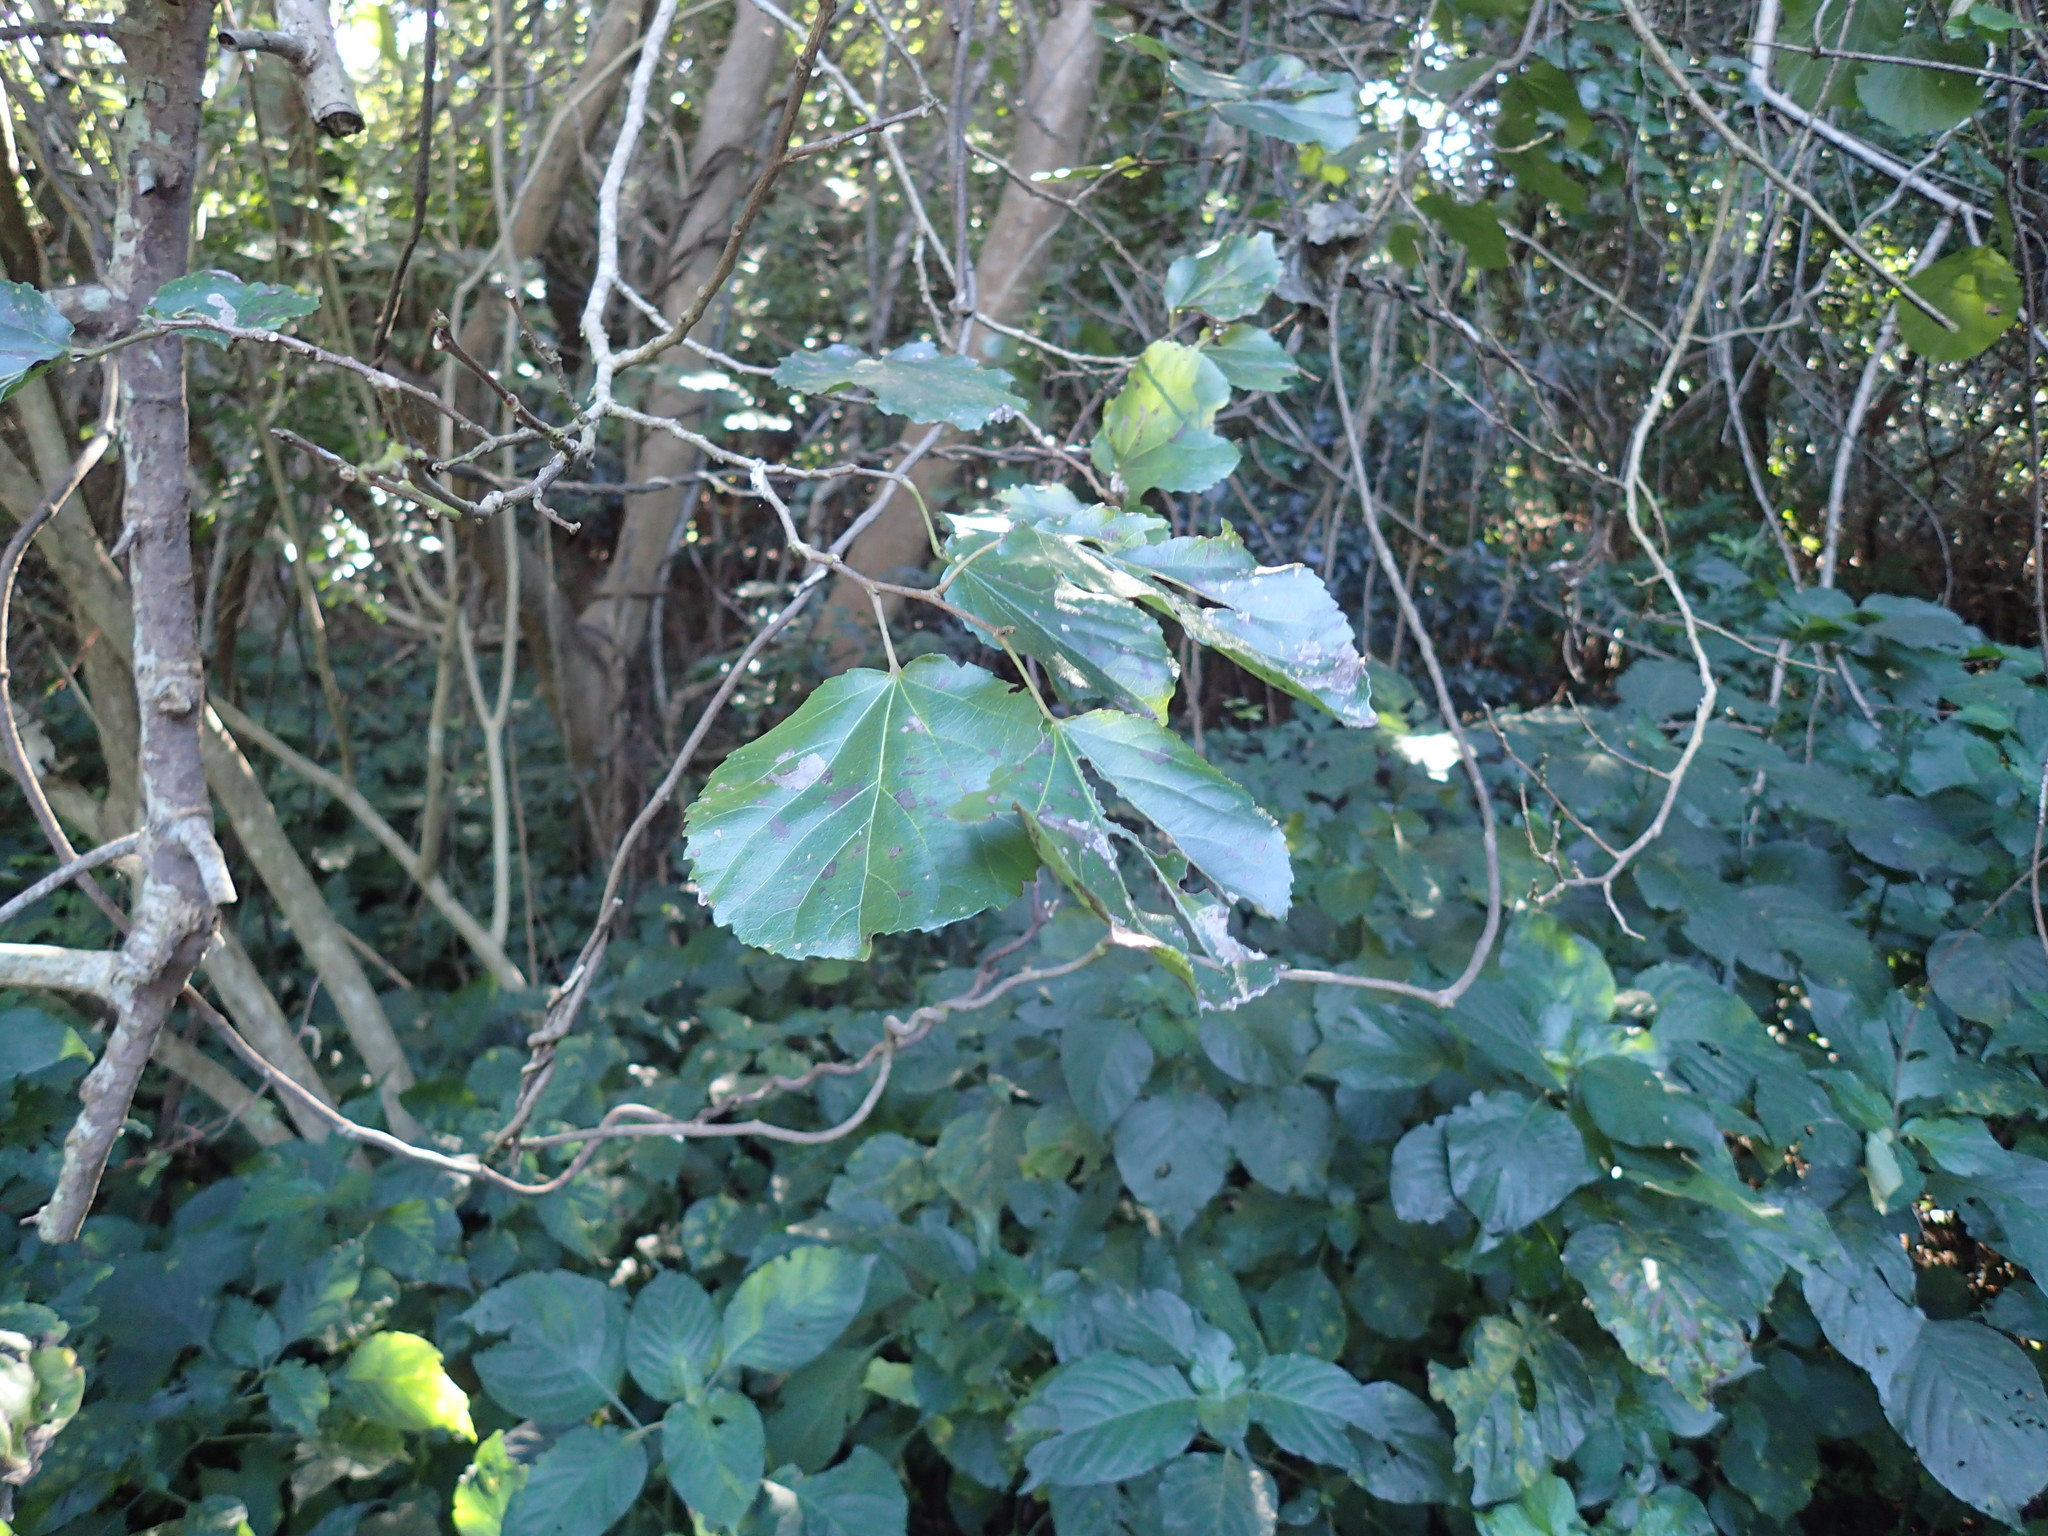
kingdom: Plantae
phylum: Tracheophyta
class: Magnoliopsida
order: Malpighiales
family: Salicaceae
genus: Trimeria
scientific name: Trimeria grandifolia
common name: Wild mulberry
